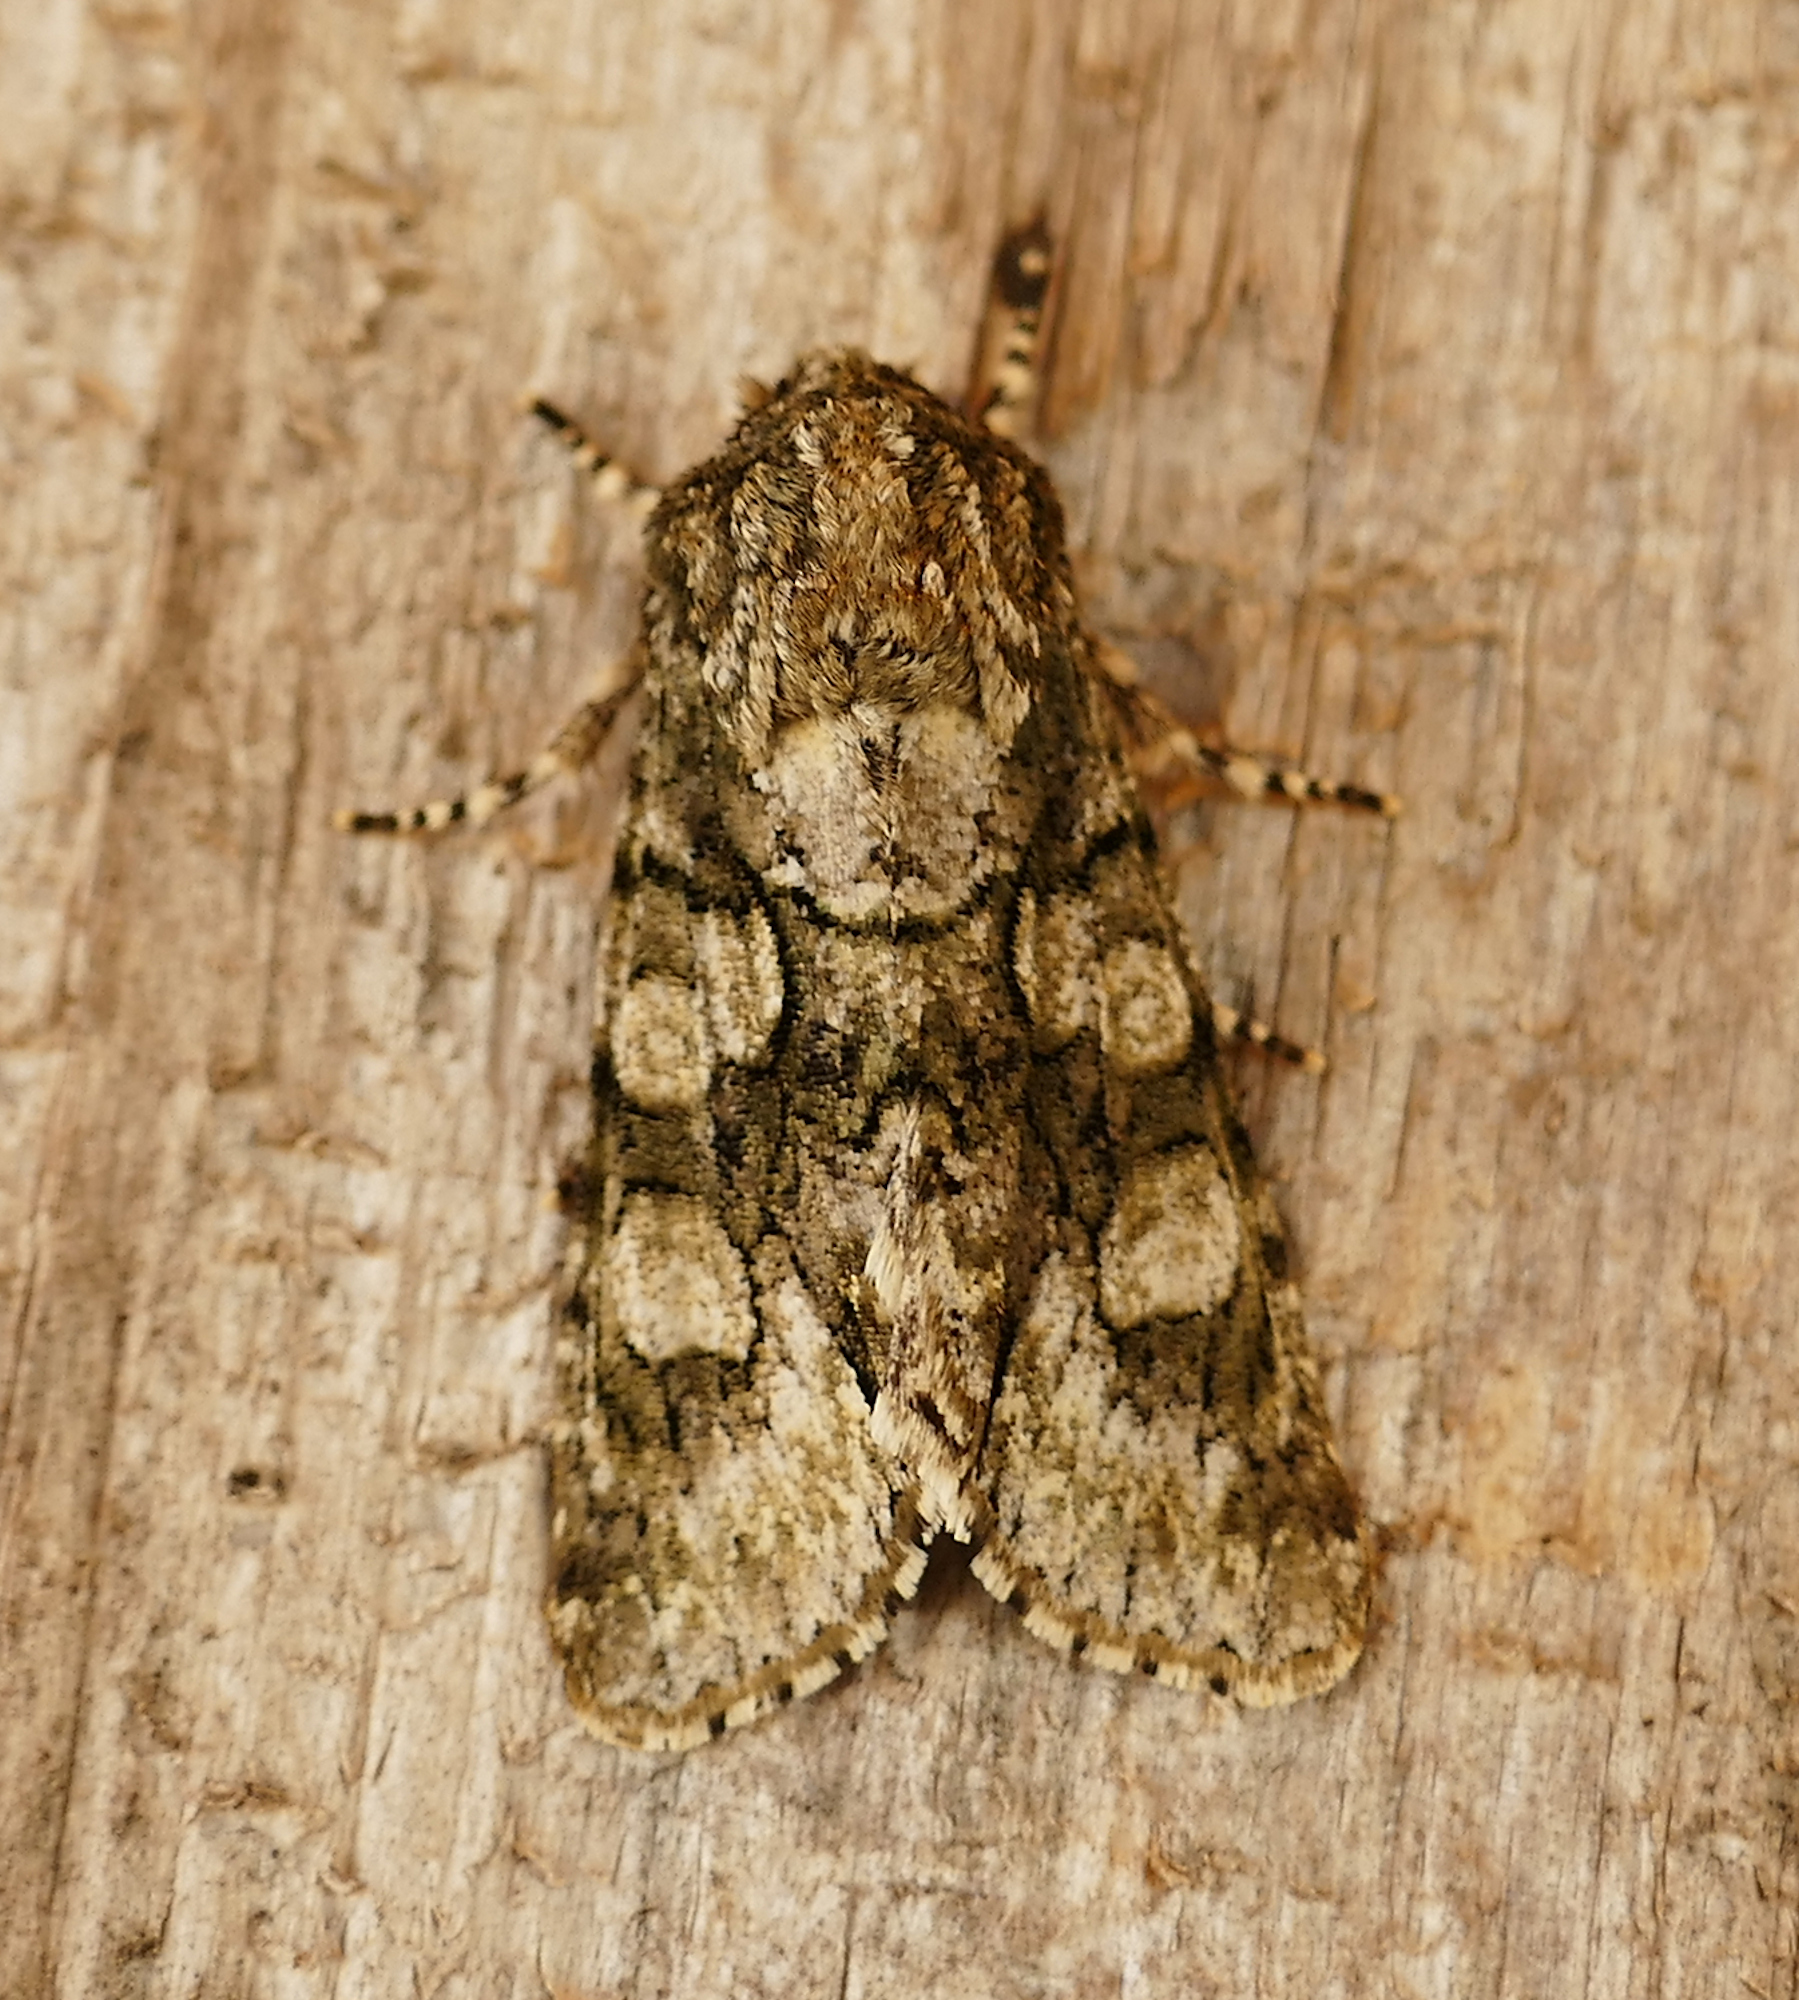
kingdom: Animalia
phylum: Arthropoda
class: Insecta
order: Lepidoptera
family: Noctuidae
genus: Psaphida
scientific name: Psaphida resumens
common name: Figure-eight sallow
